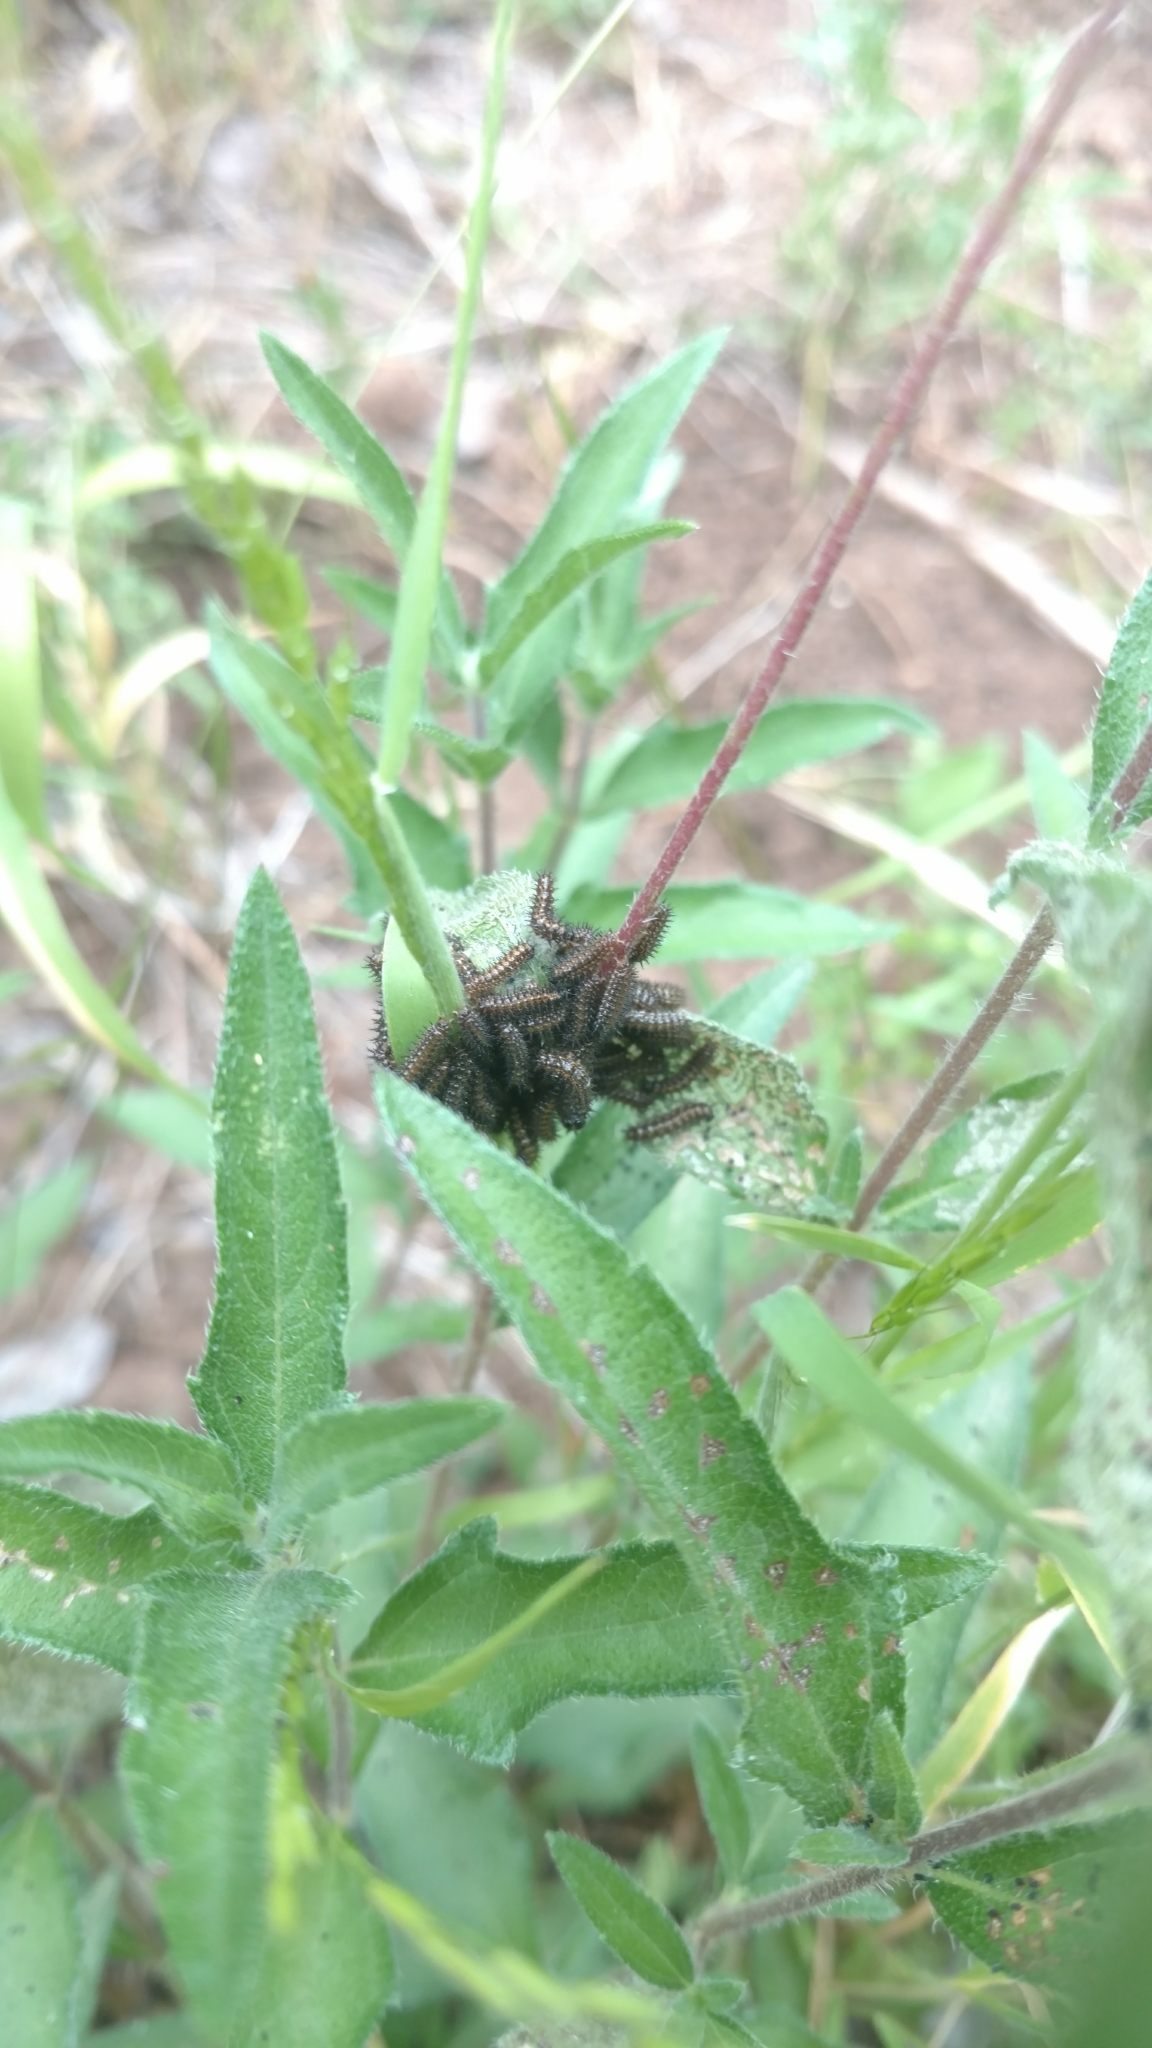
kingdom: Animalia
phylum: Arthropoda
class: Insecta
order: Lepidoptera
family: Nymphalidae
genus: Chlosyne
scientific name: Chlosyne lacinia
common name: Bordered patch
